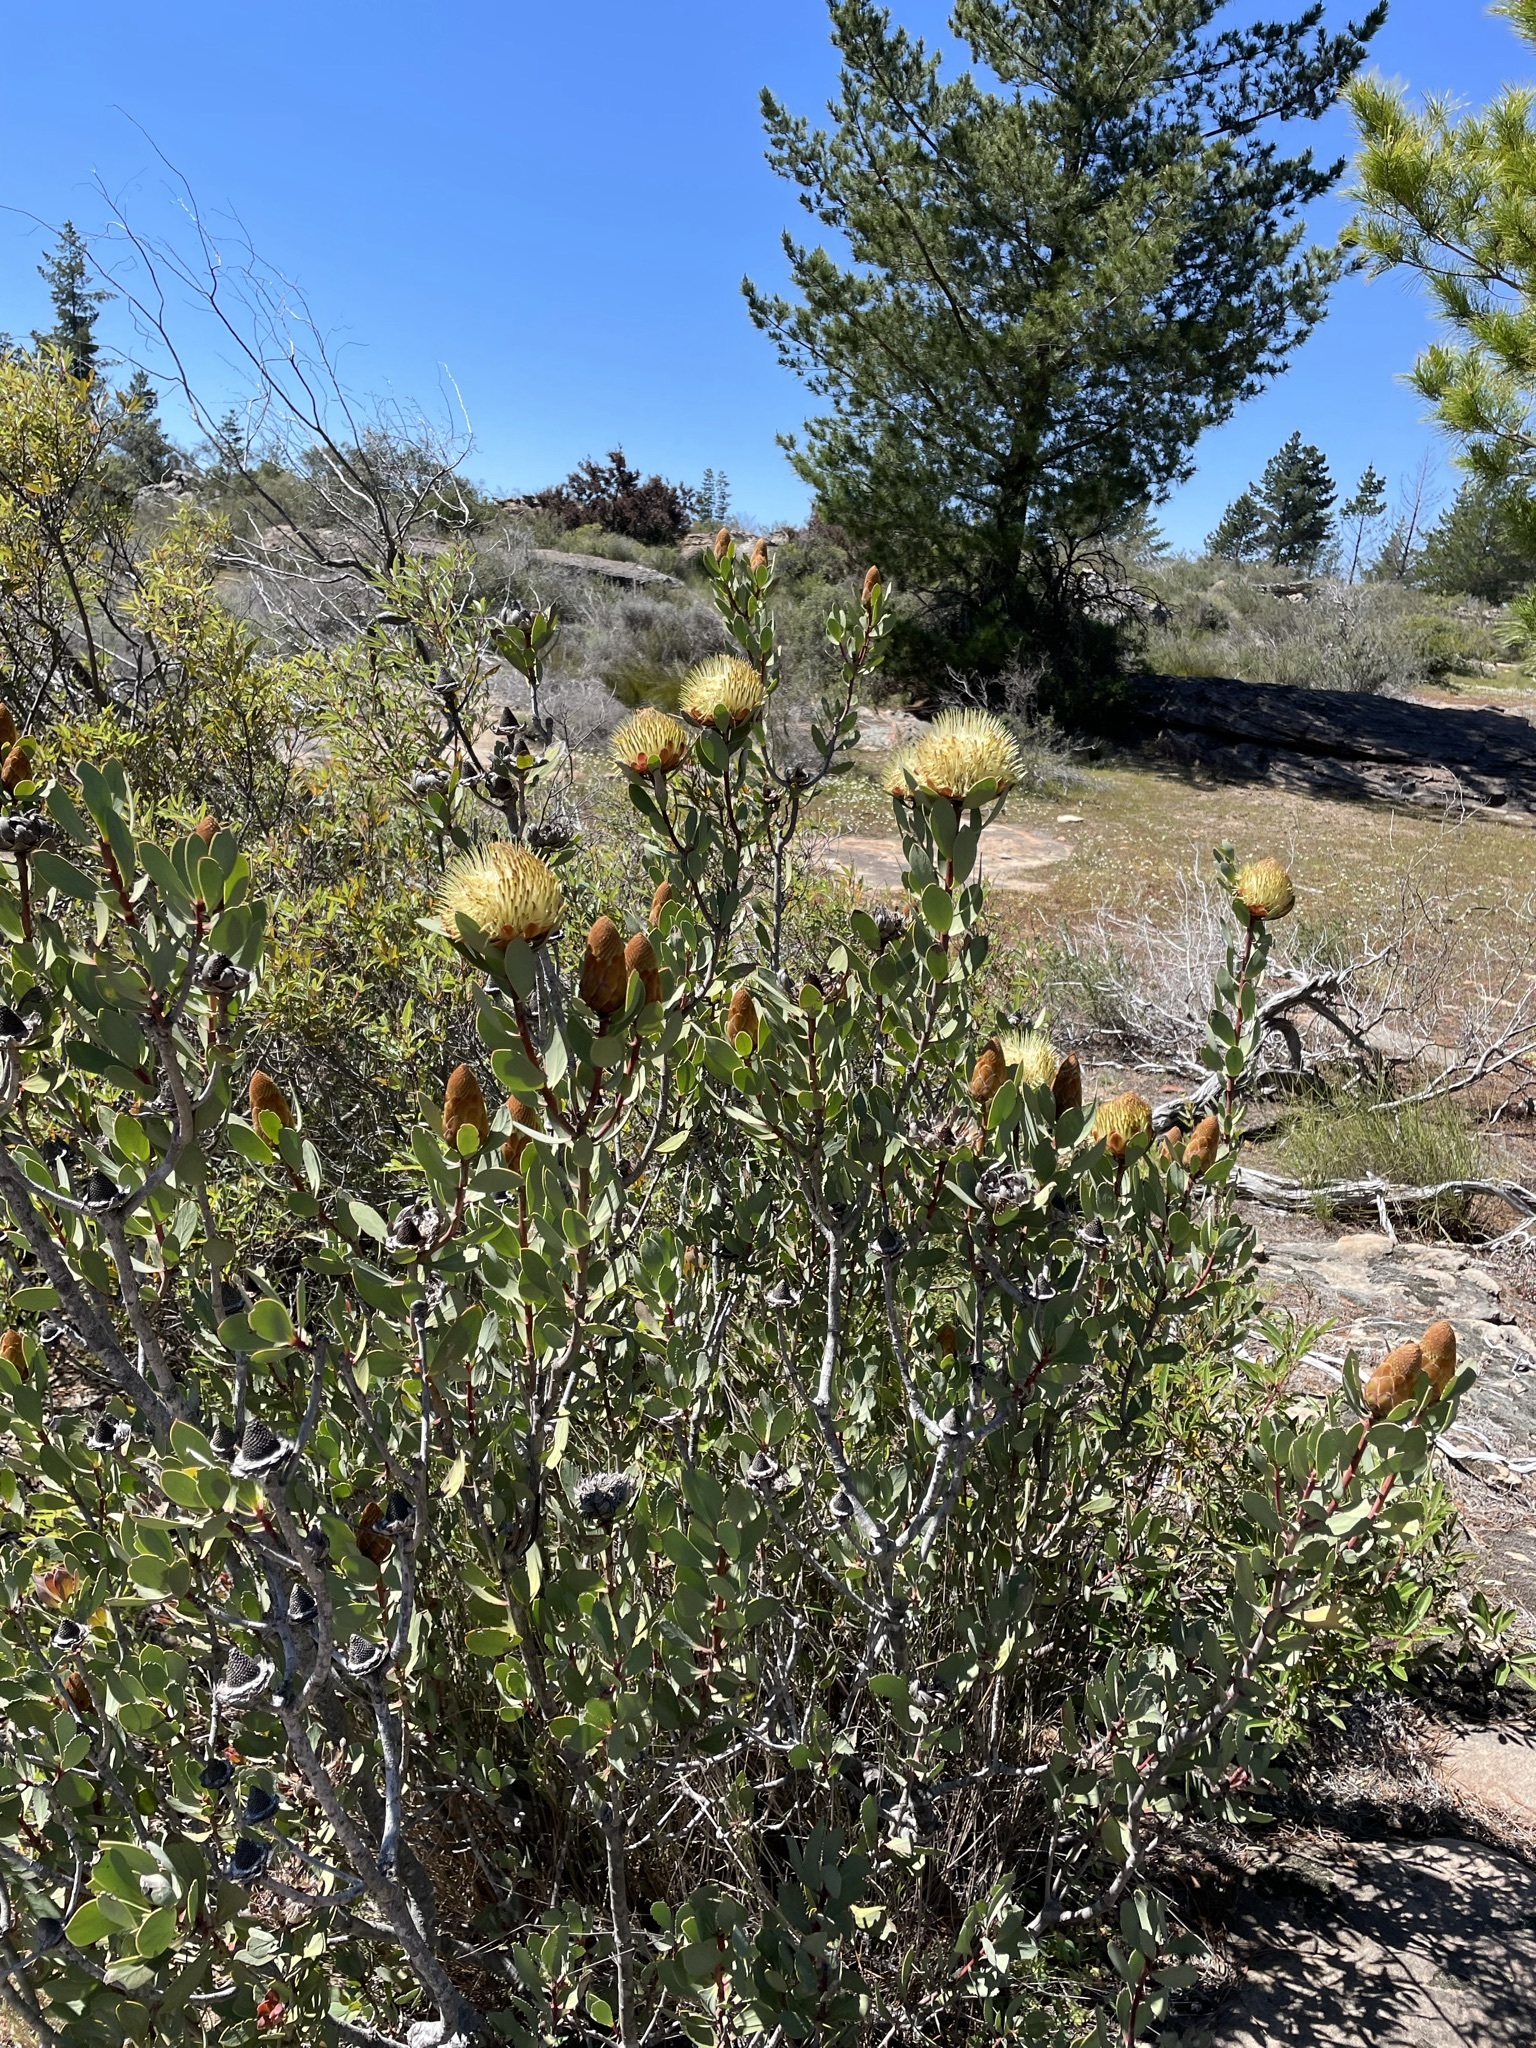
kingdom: Plantae
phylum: Tracheophyta
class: Magnoliopsida
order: Proteales
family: Proteaceae
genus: Protea
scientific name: Protea glabra
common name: Chestnut sugarbush
